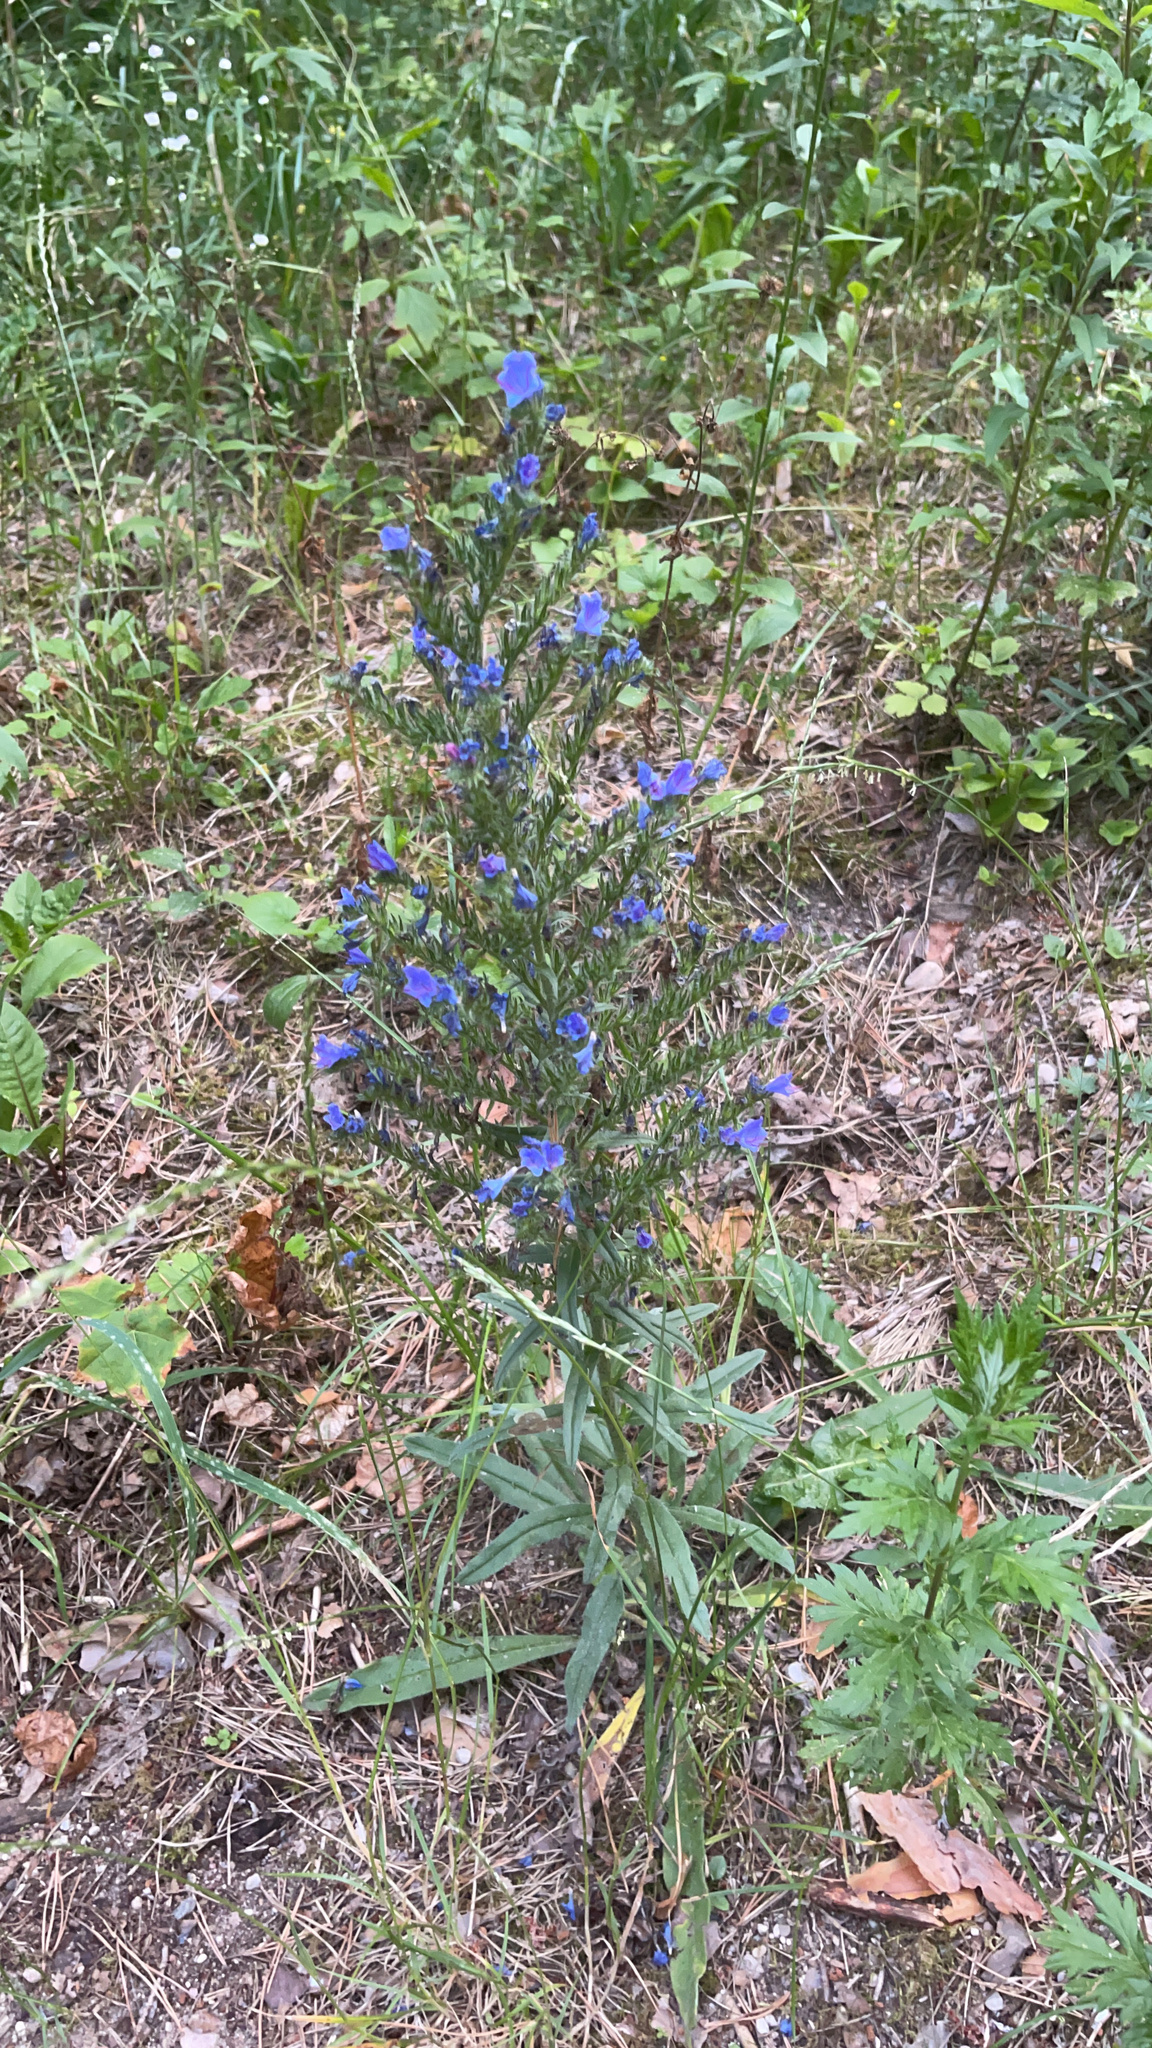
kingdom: Plantae
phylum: Tracheophyta
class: Magnoliopsida
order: Boraginales
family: Boraginaceae
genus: Echium
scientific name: Echium vulgare
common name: Common viper's bugloss
